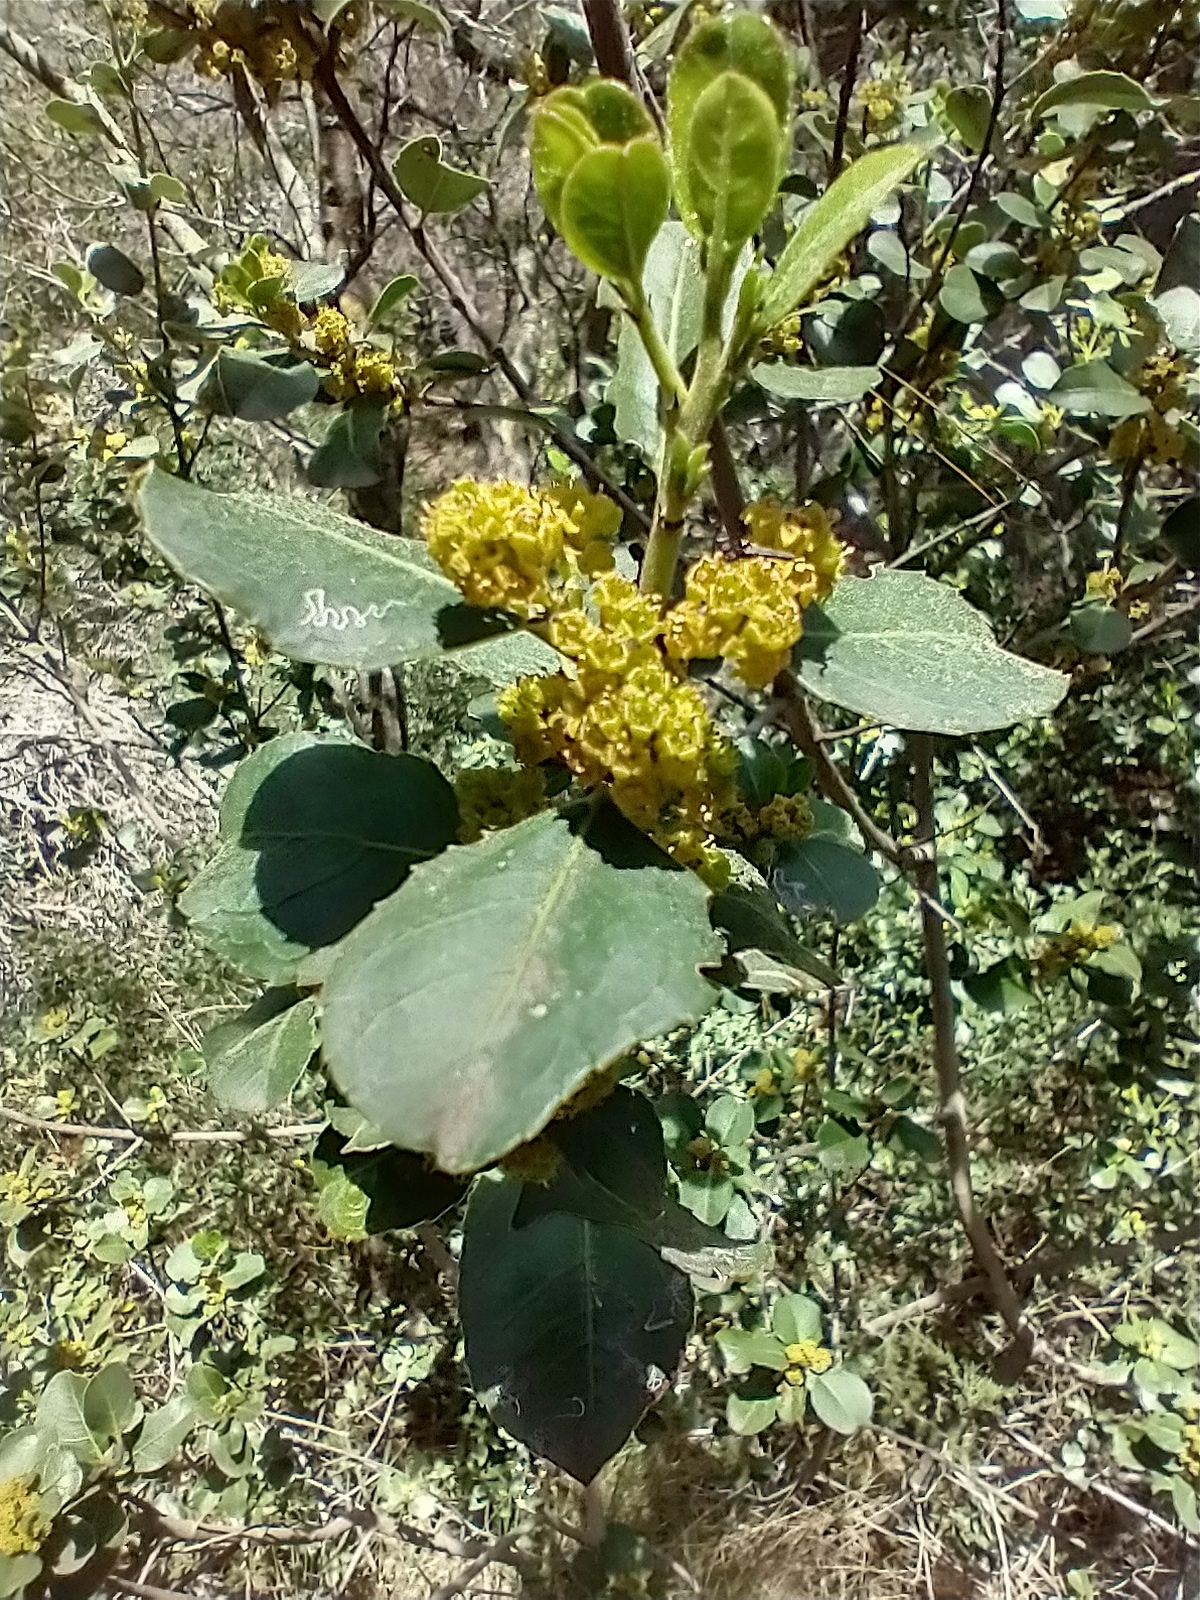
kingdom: Plantae
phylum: Tracheophyta
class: Magnoliopsida
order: Rosales
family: Rhamnaceae
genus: Rhamnus
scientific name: Rhamnus alaternus
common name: Mediterranean buckthorn
